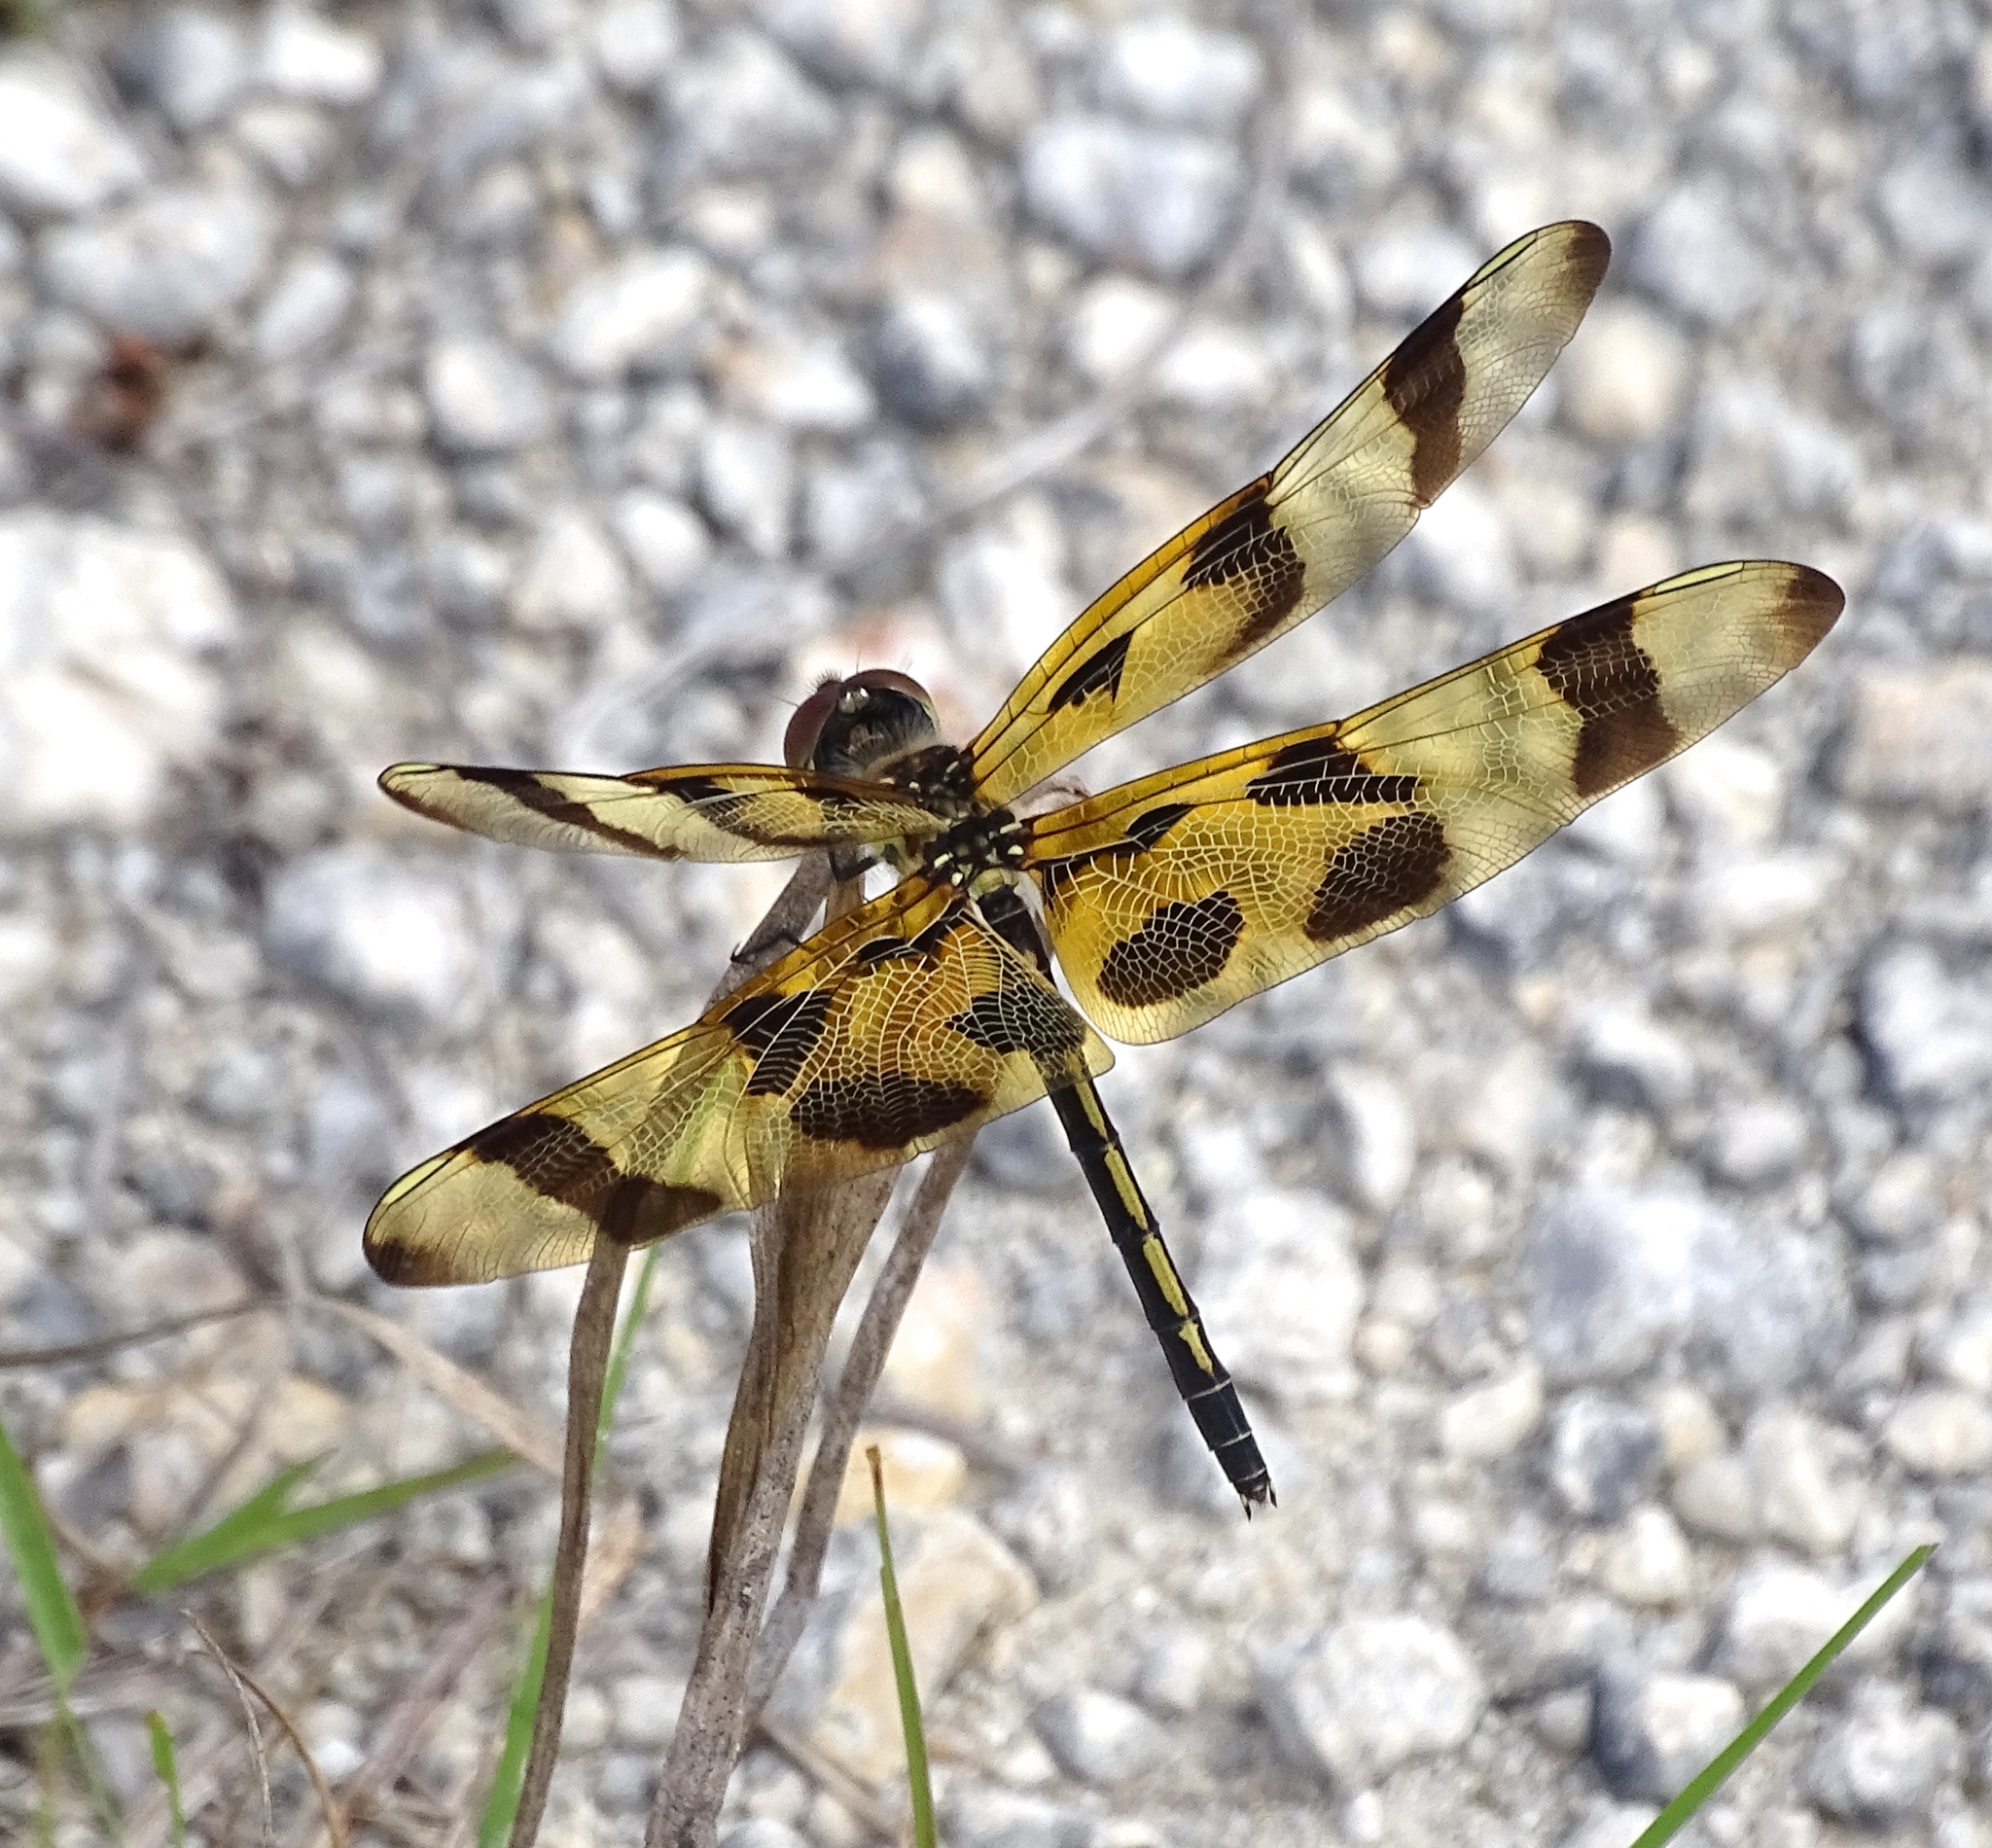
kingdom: Animalia
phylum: Arthropoda
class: Insecta
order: Odonata
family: Libellulidae
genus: Celithemis
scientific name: Celithemis eponina
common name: Halloween pennant
